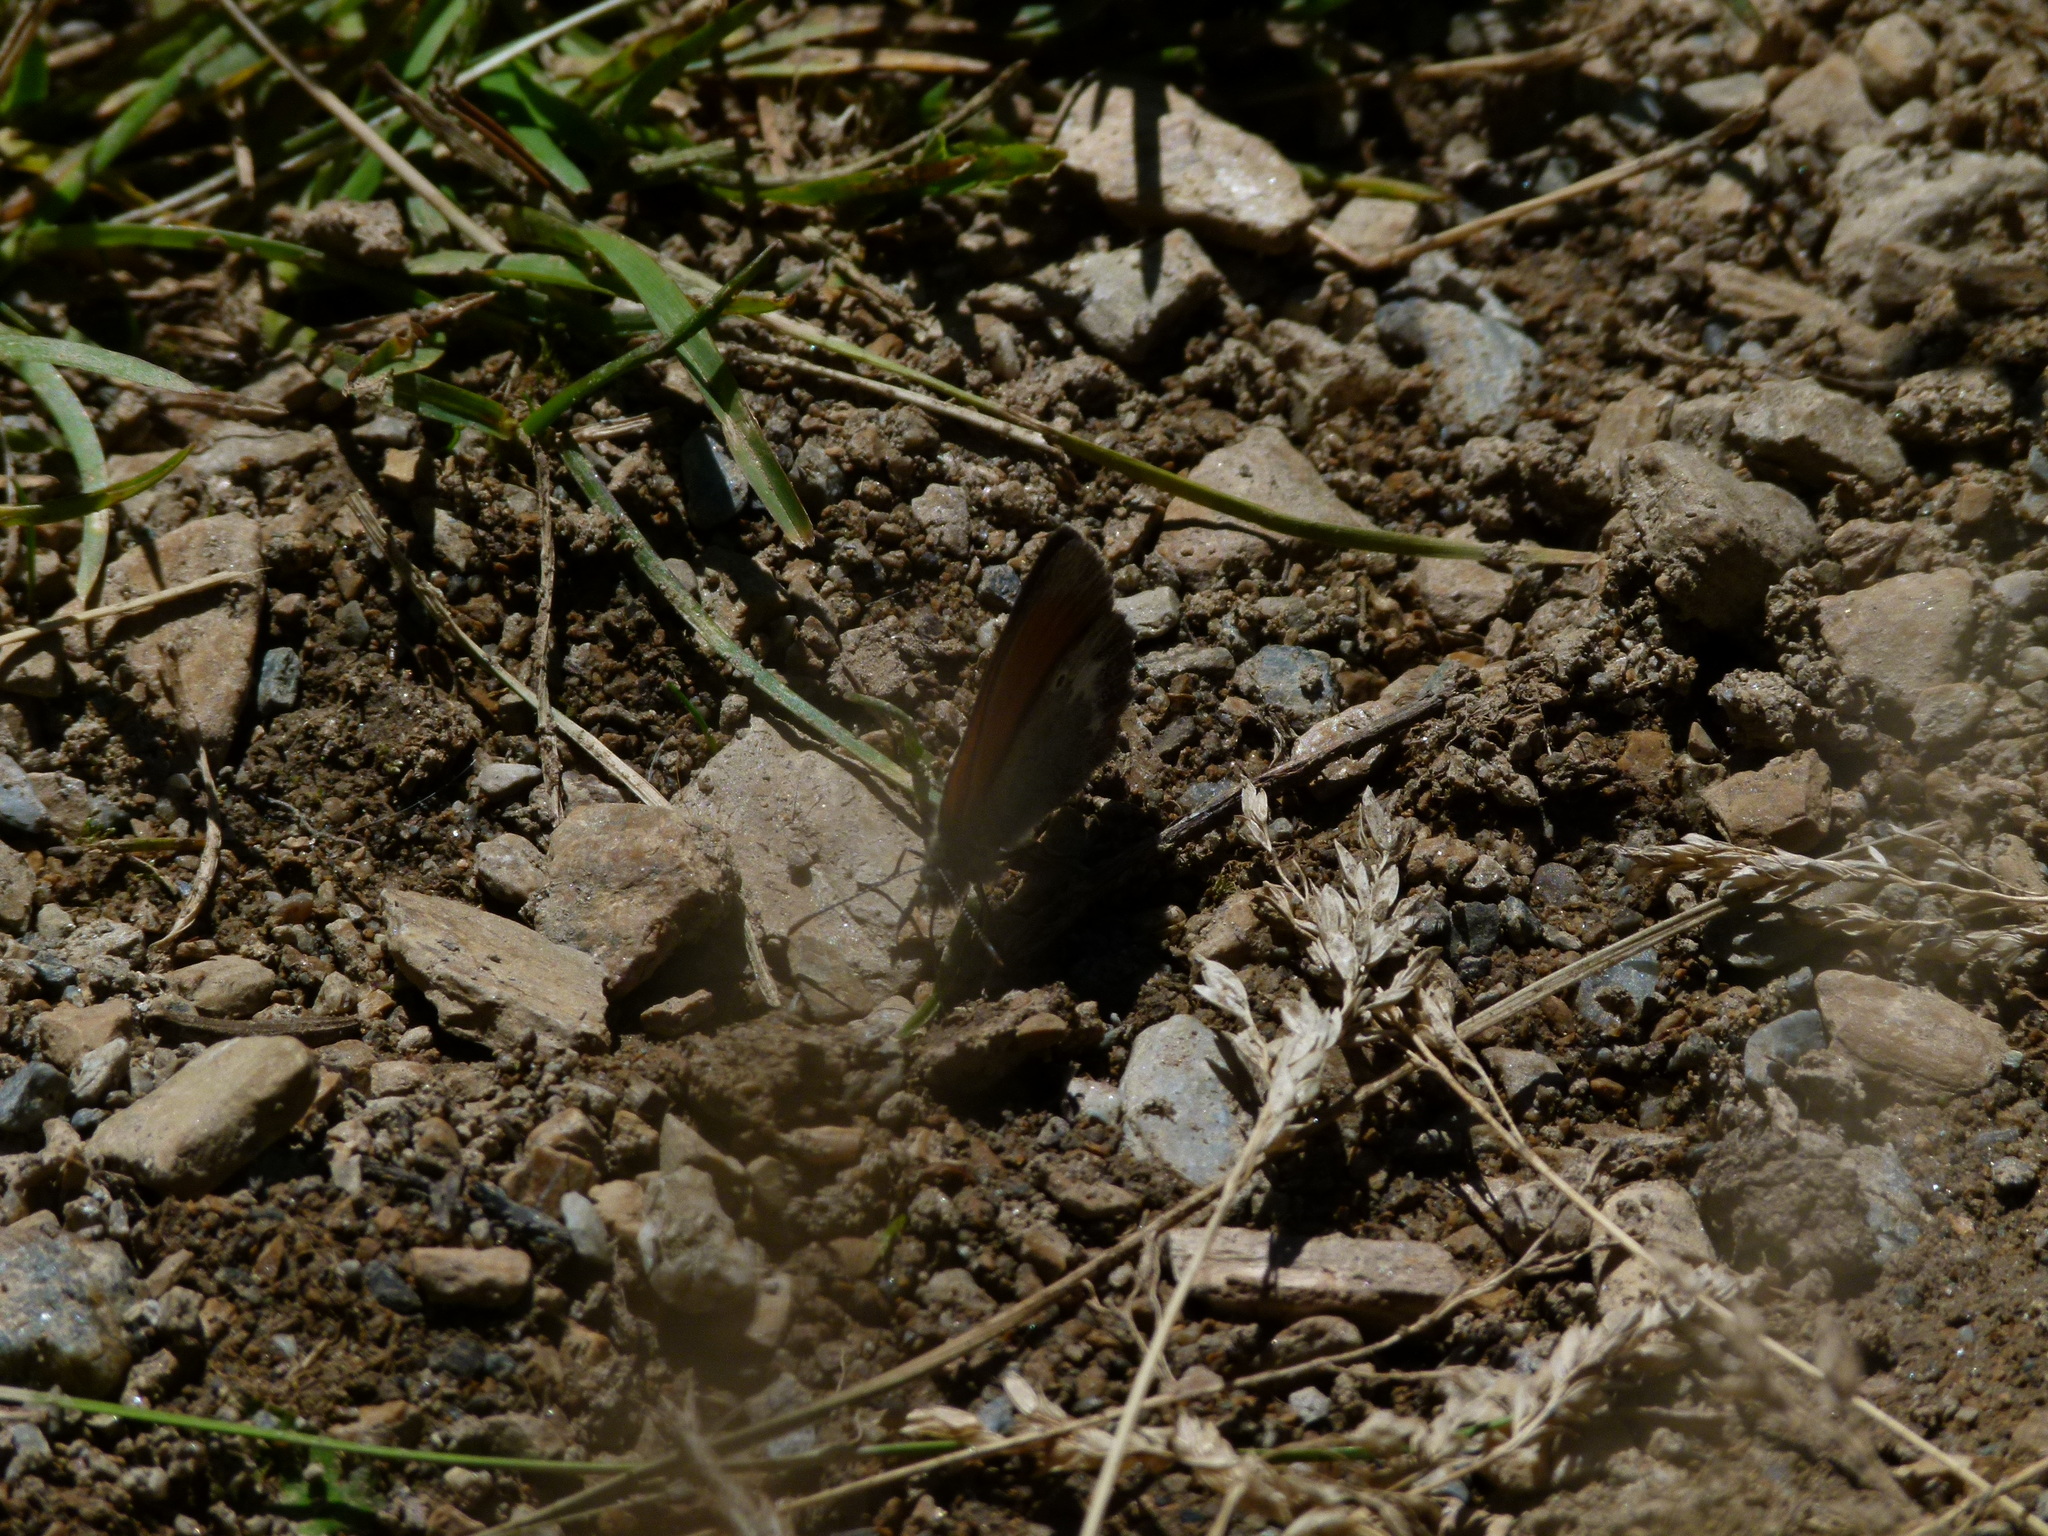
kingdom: Animalia
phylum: Arthropoda
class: Insecta
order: Lepidoptera
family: Nymphalidae
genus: Coenonympha
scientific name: Coenonympha iphis
